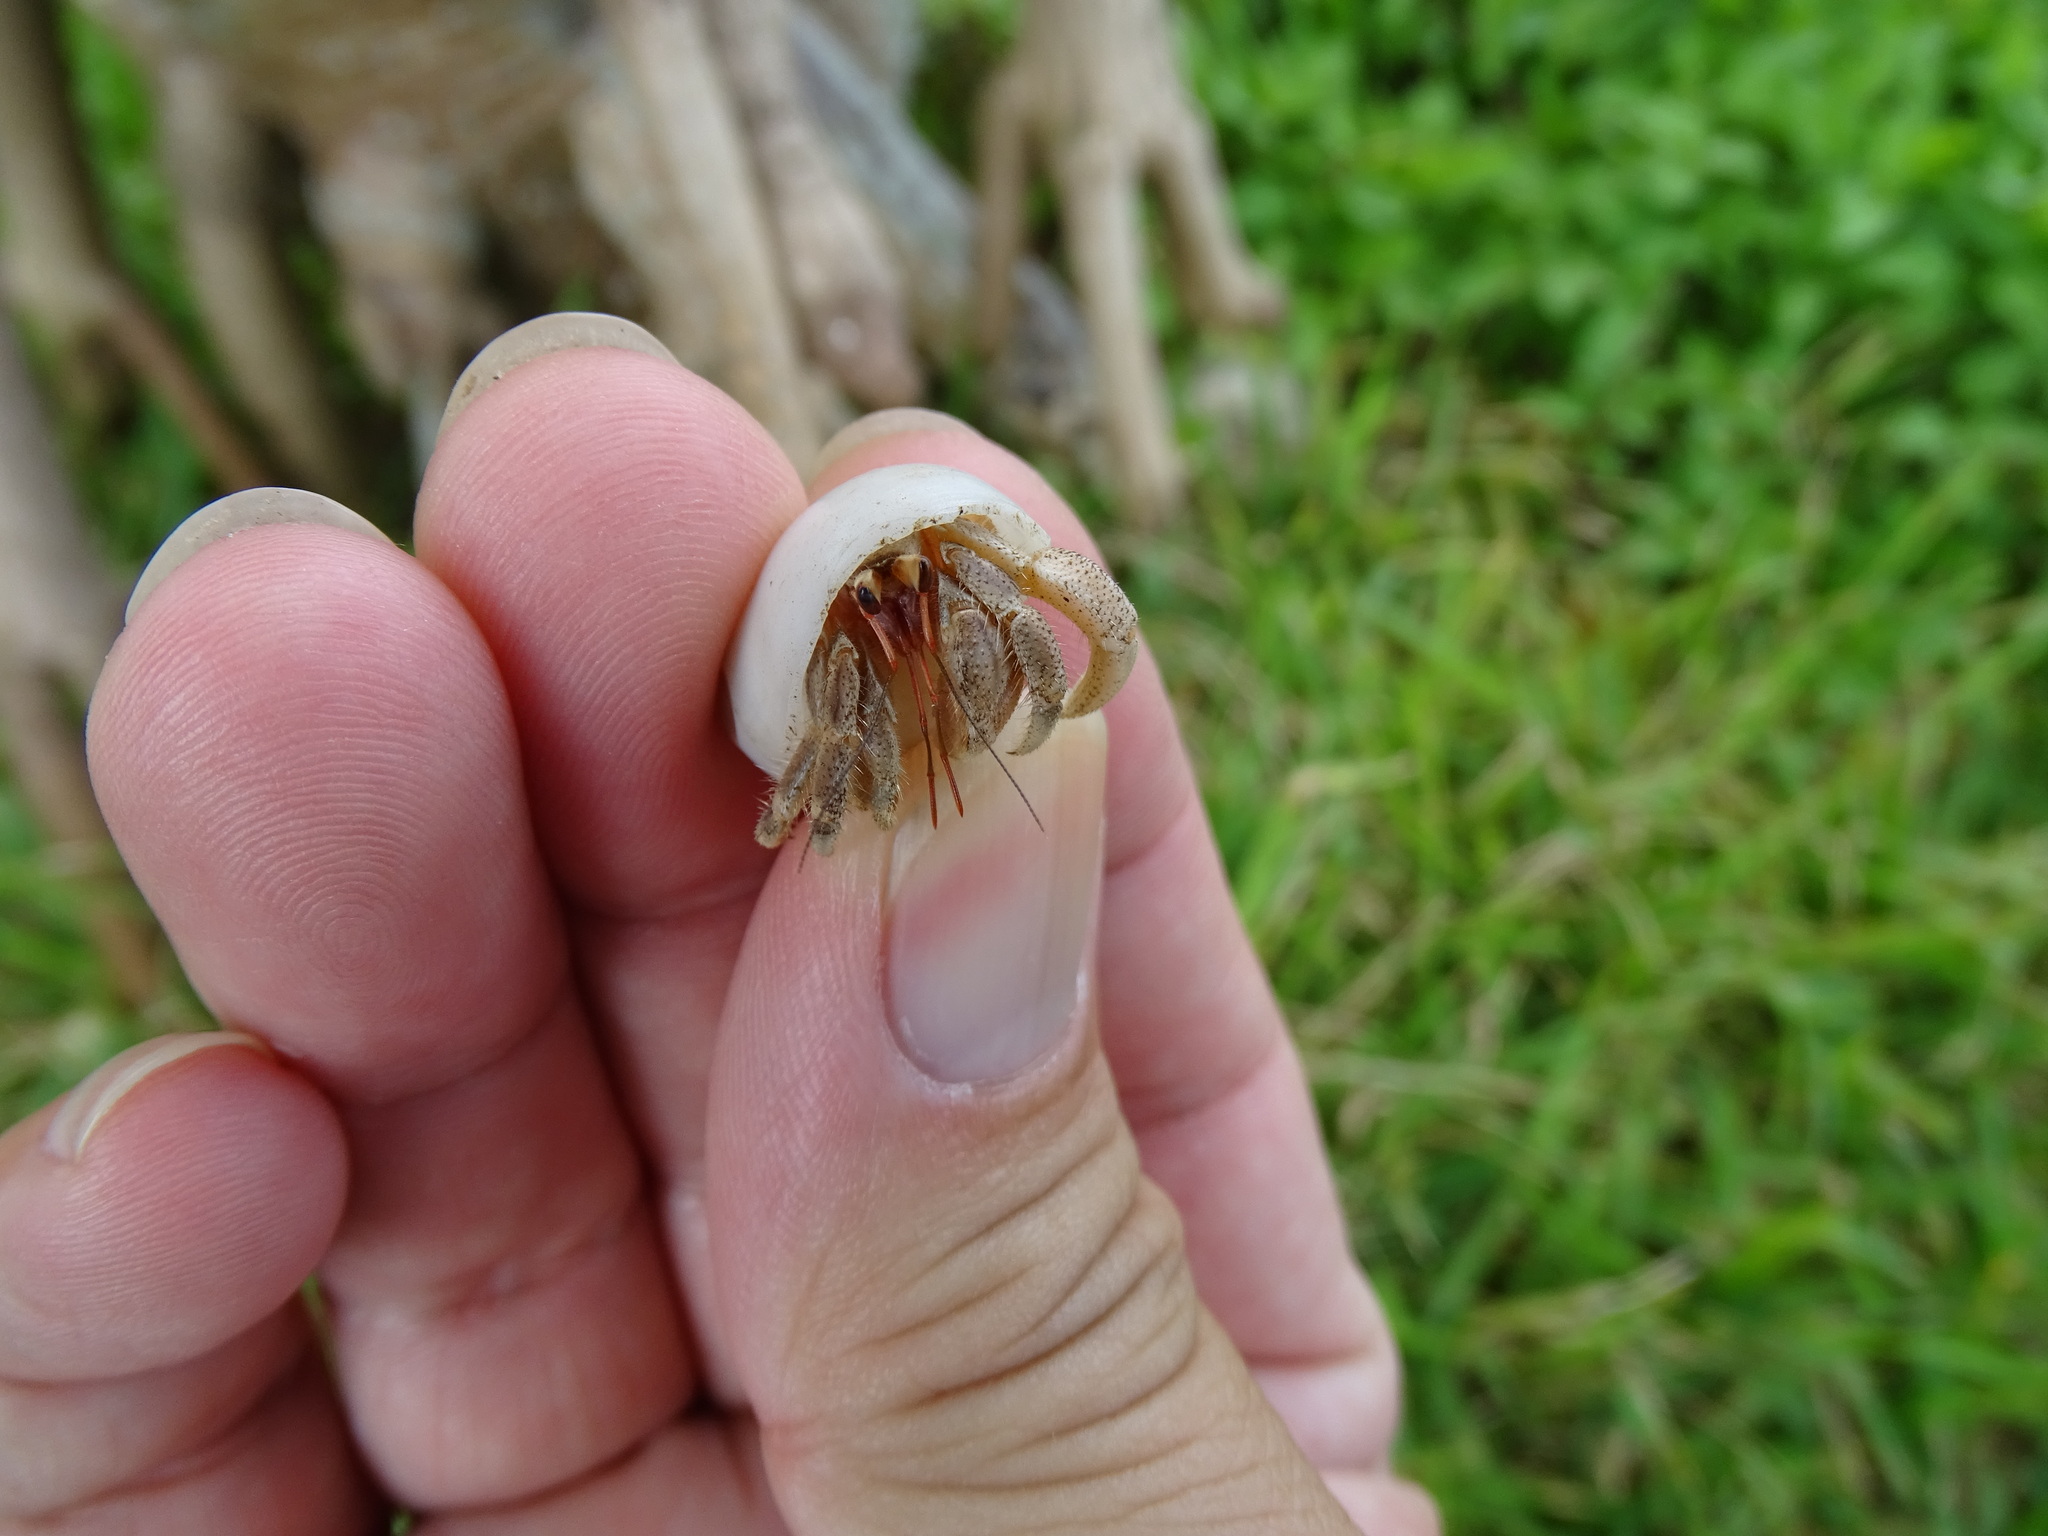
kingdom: Animalia
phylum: Arthropoda
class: Malacostraca
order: Decapoda
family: Coenobitidae
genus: Coenobita
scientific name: Coenobita rugosus
